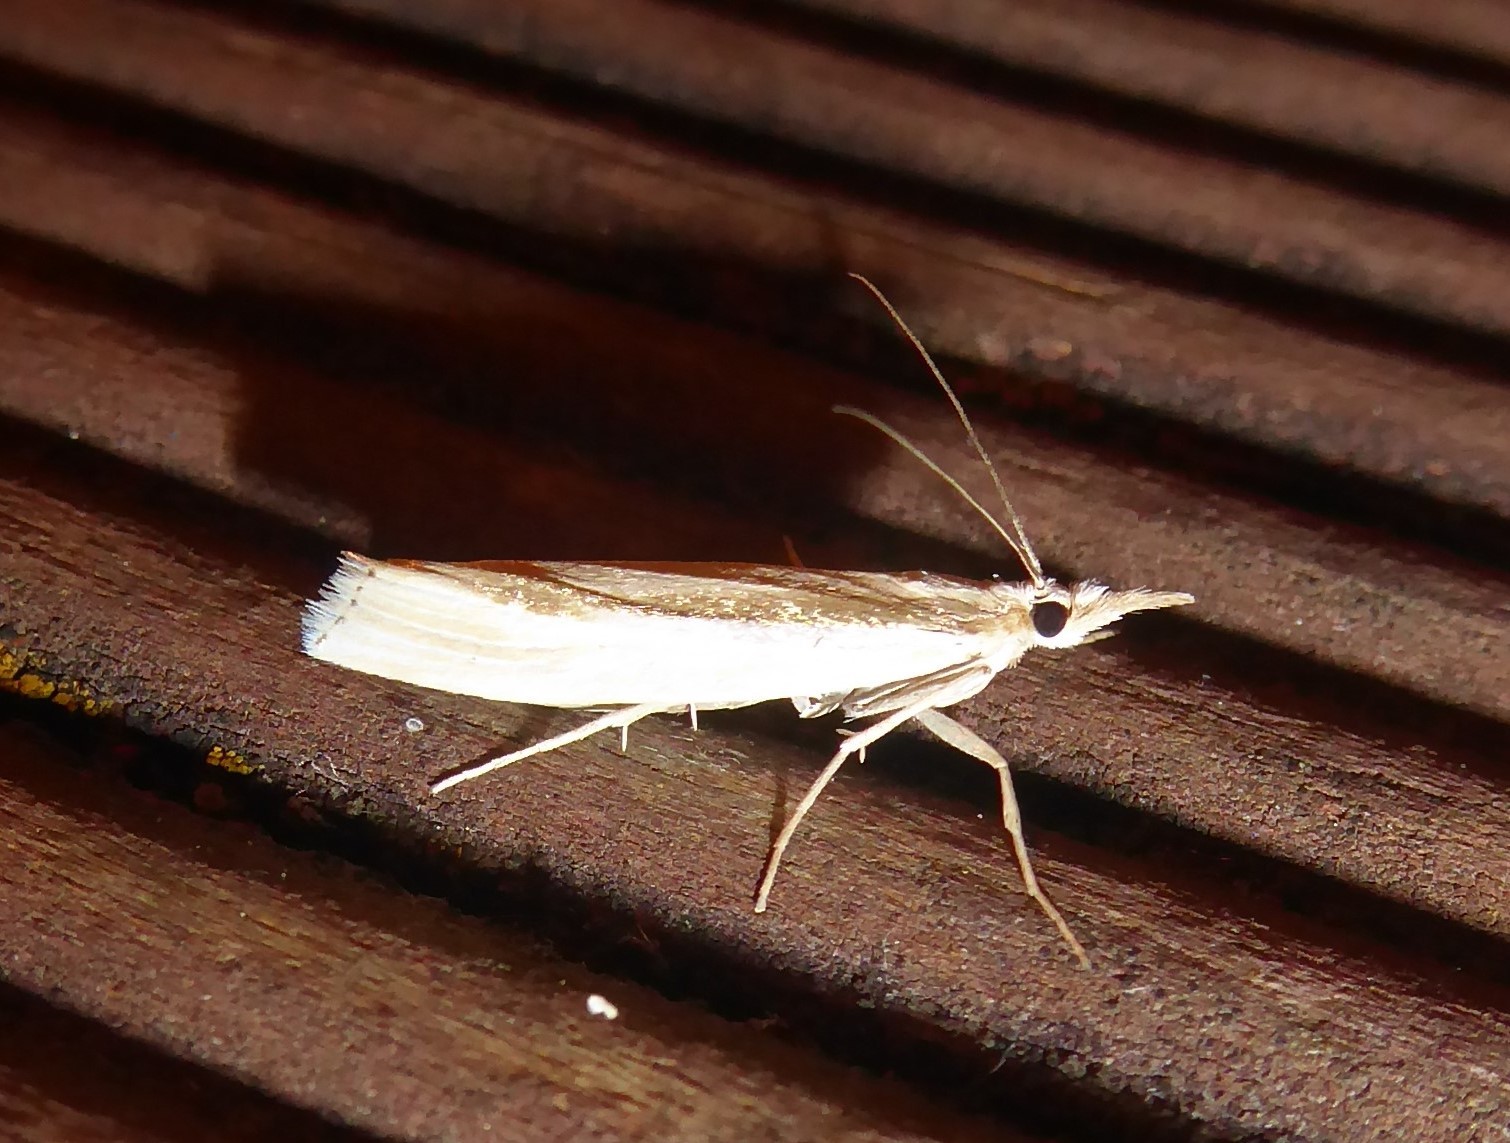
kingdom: Animalia
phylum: Arthropoda
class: Insecta
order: Lepidoptera
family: Crambidae
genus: Orocrambus
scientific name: Orocrambus ramosellus
